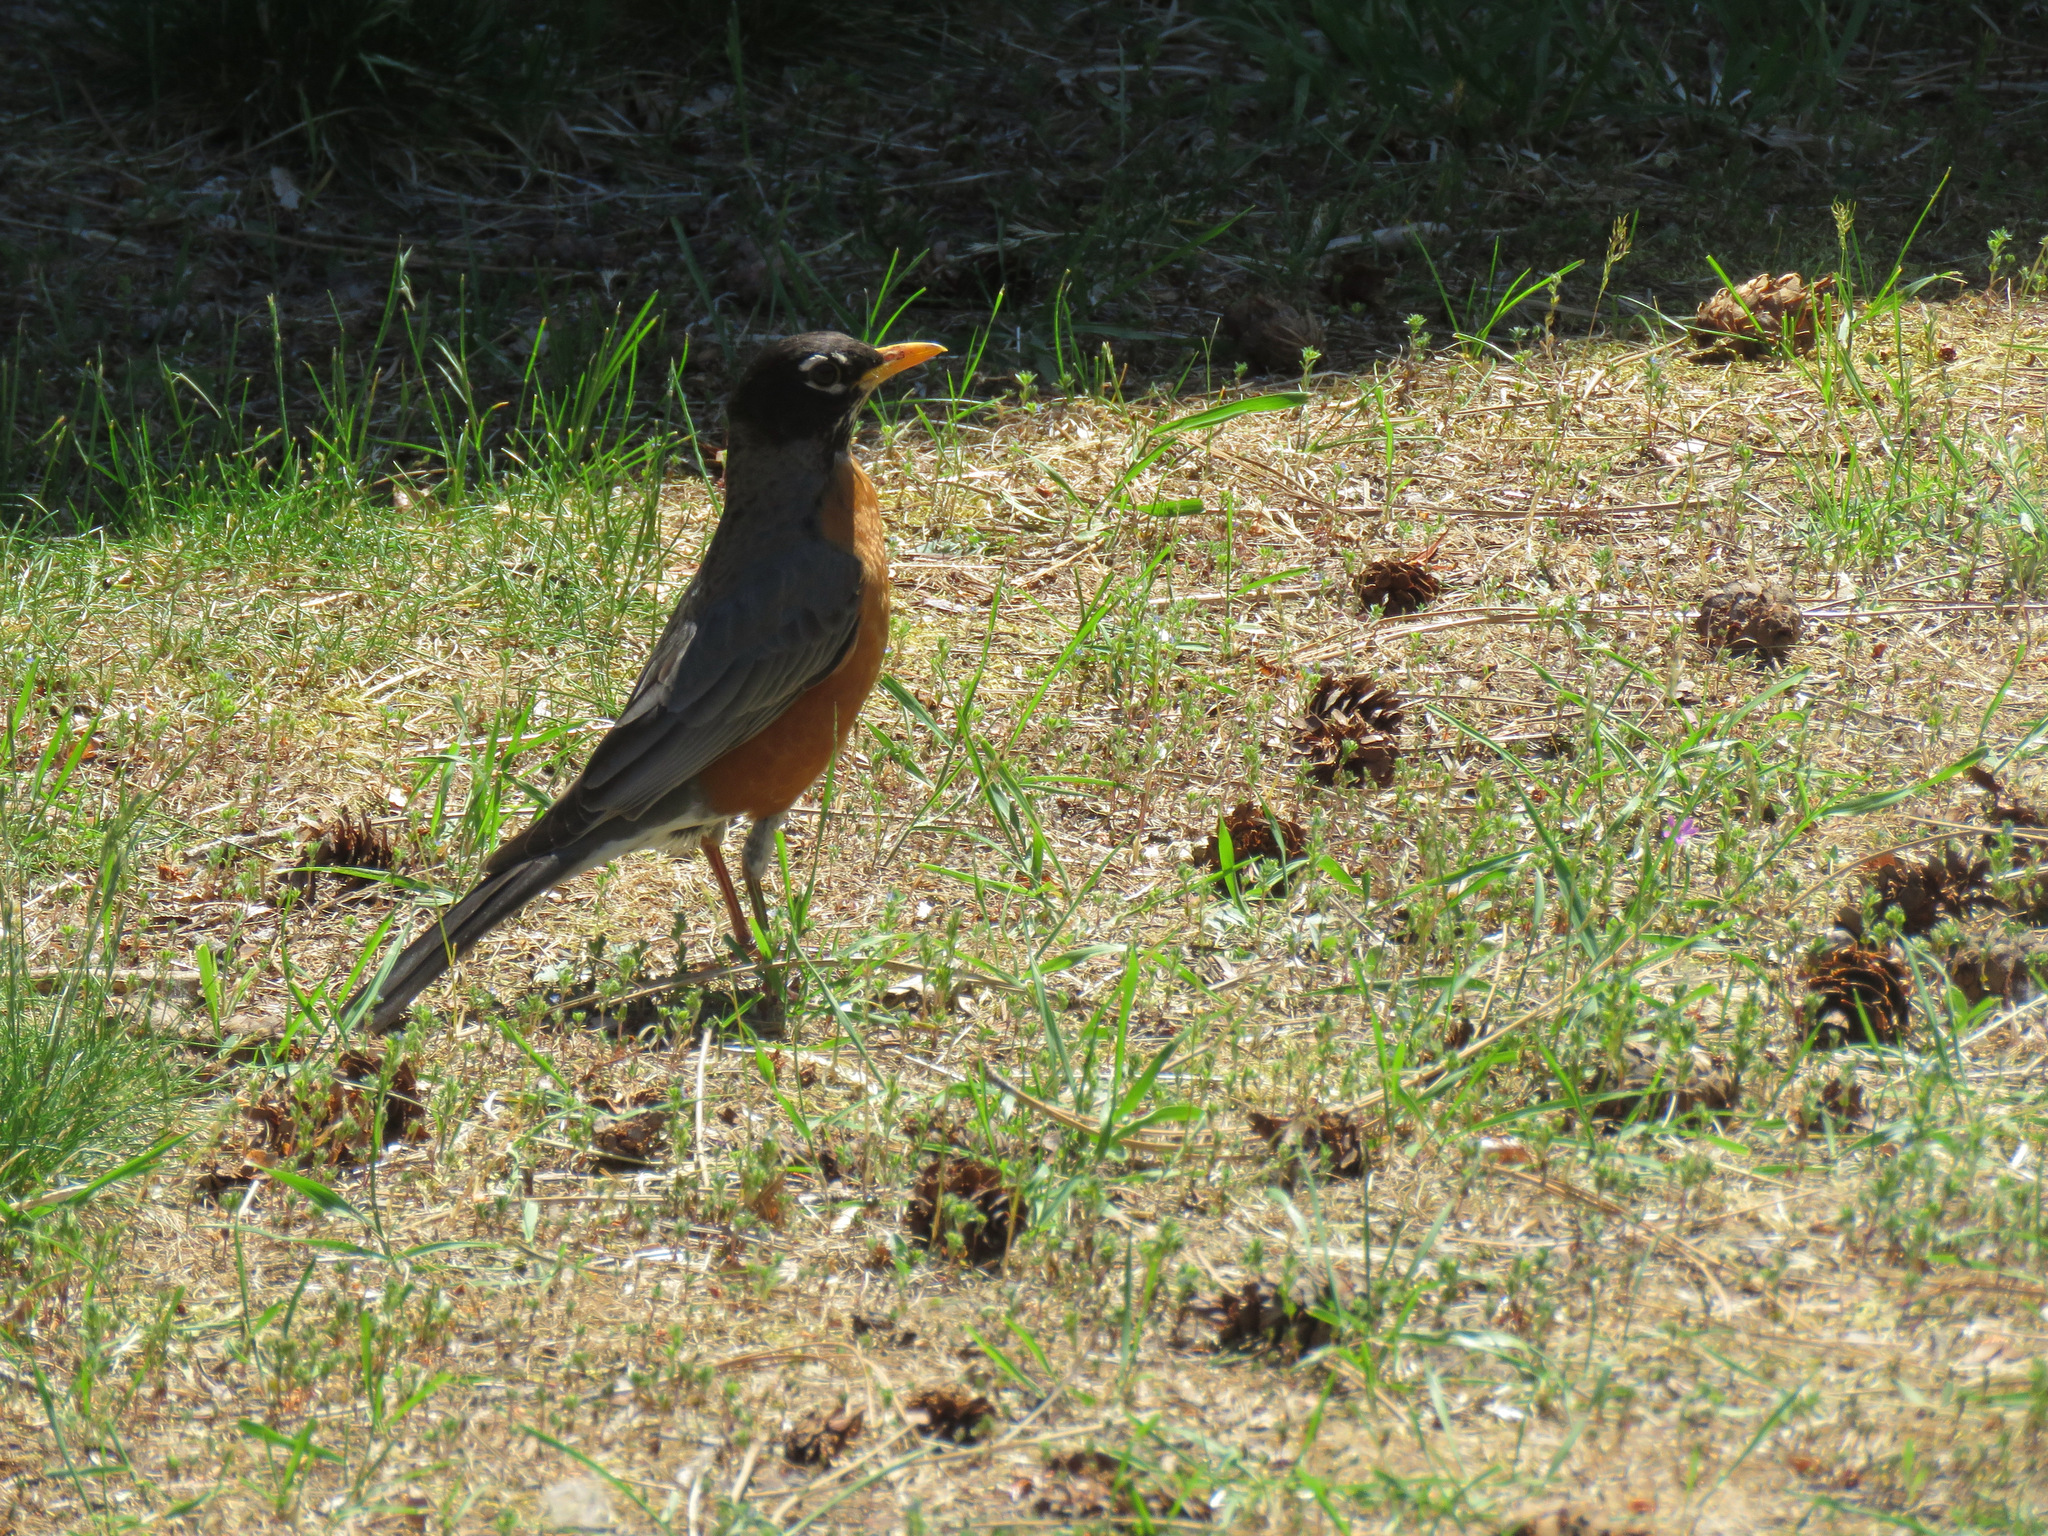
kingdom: Animalia
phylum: Chordata
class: Aves
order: Passeriformes
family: Turdidae
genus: Turdus
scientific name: Turdus migratorius
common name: American robin
